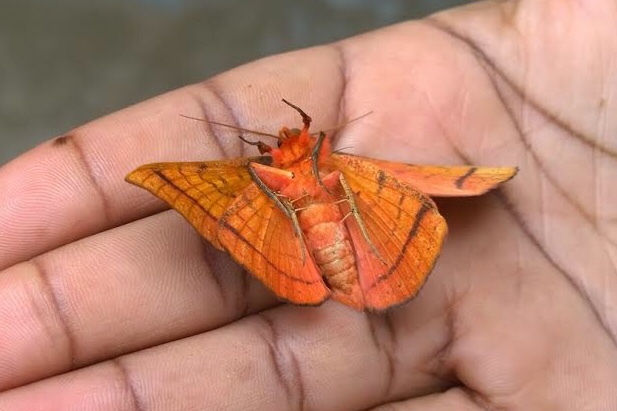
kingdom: Animalia
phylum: Arthropoda
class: Insecta
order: Lepidoptera
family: Erebidae
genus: Hypopyra
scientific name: Hypopyra capensis
